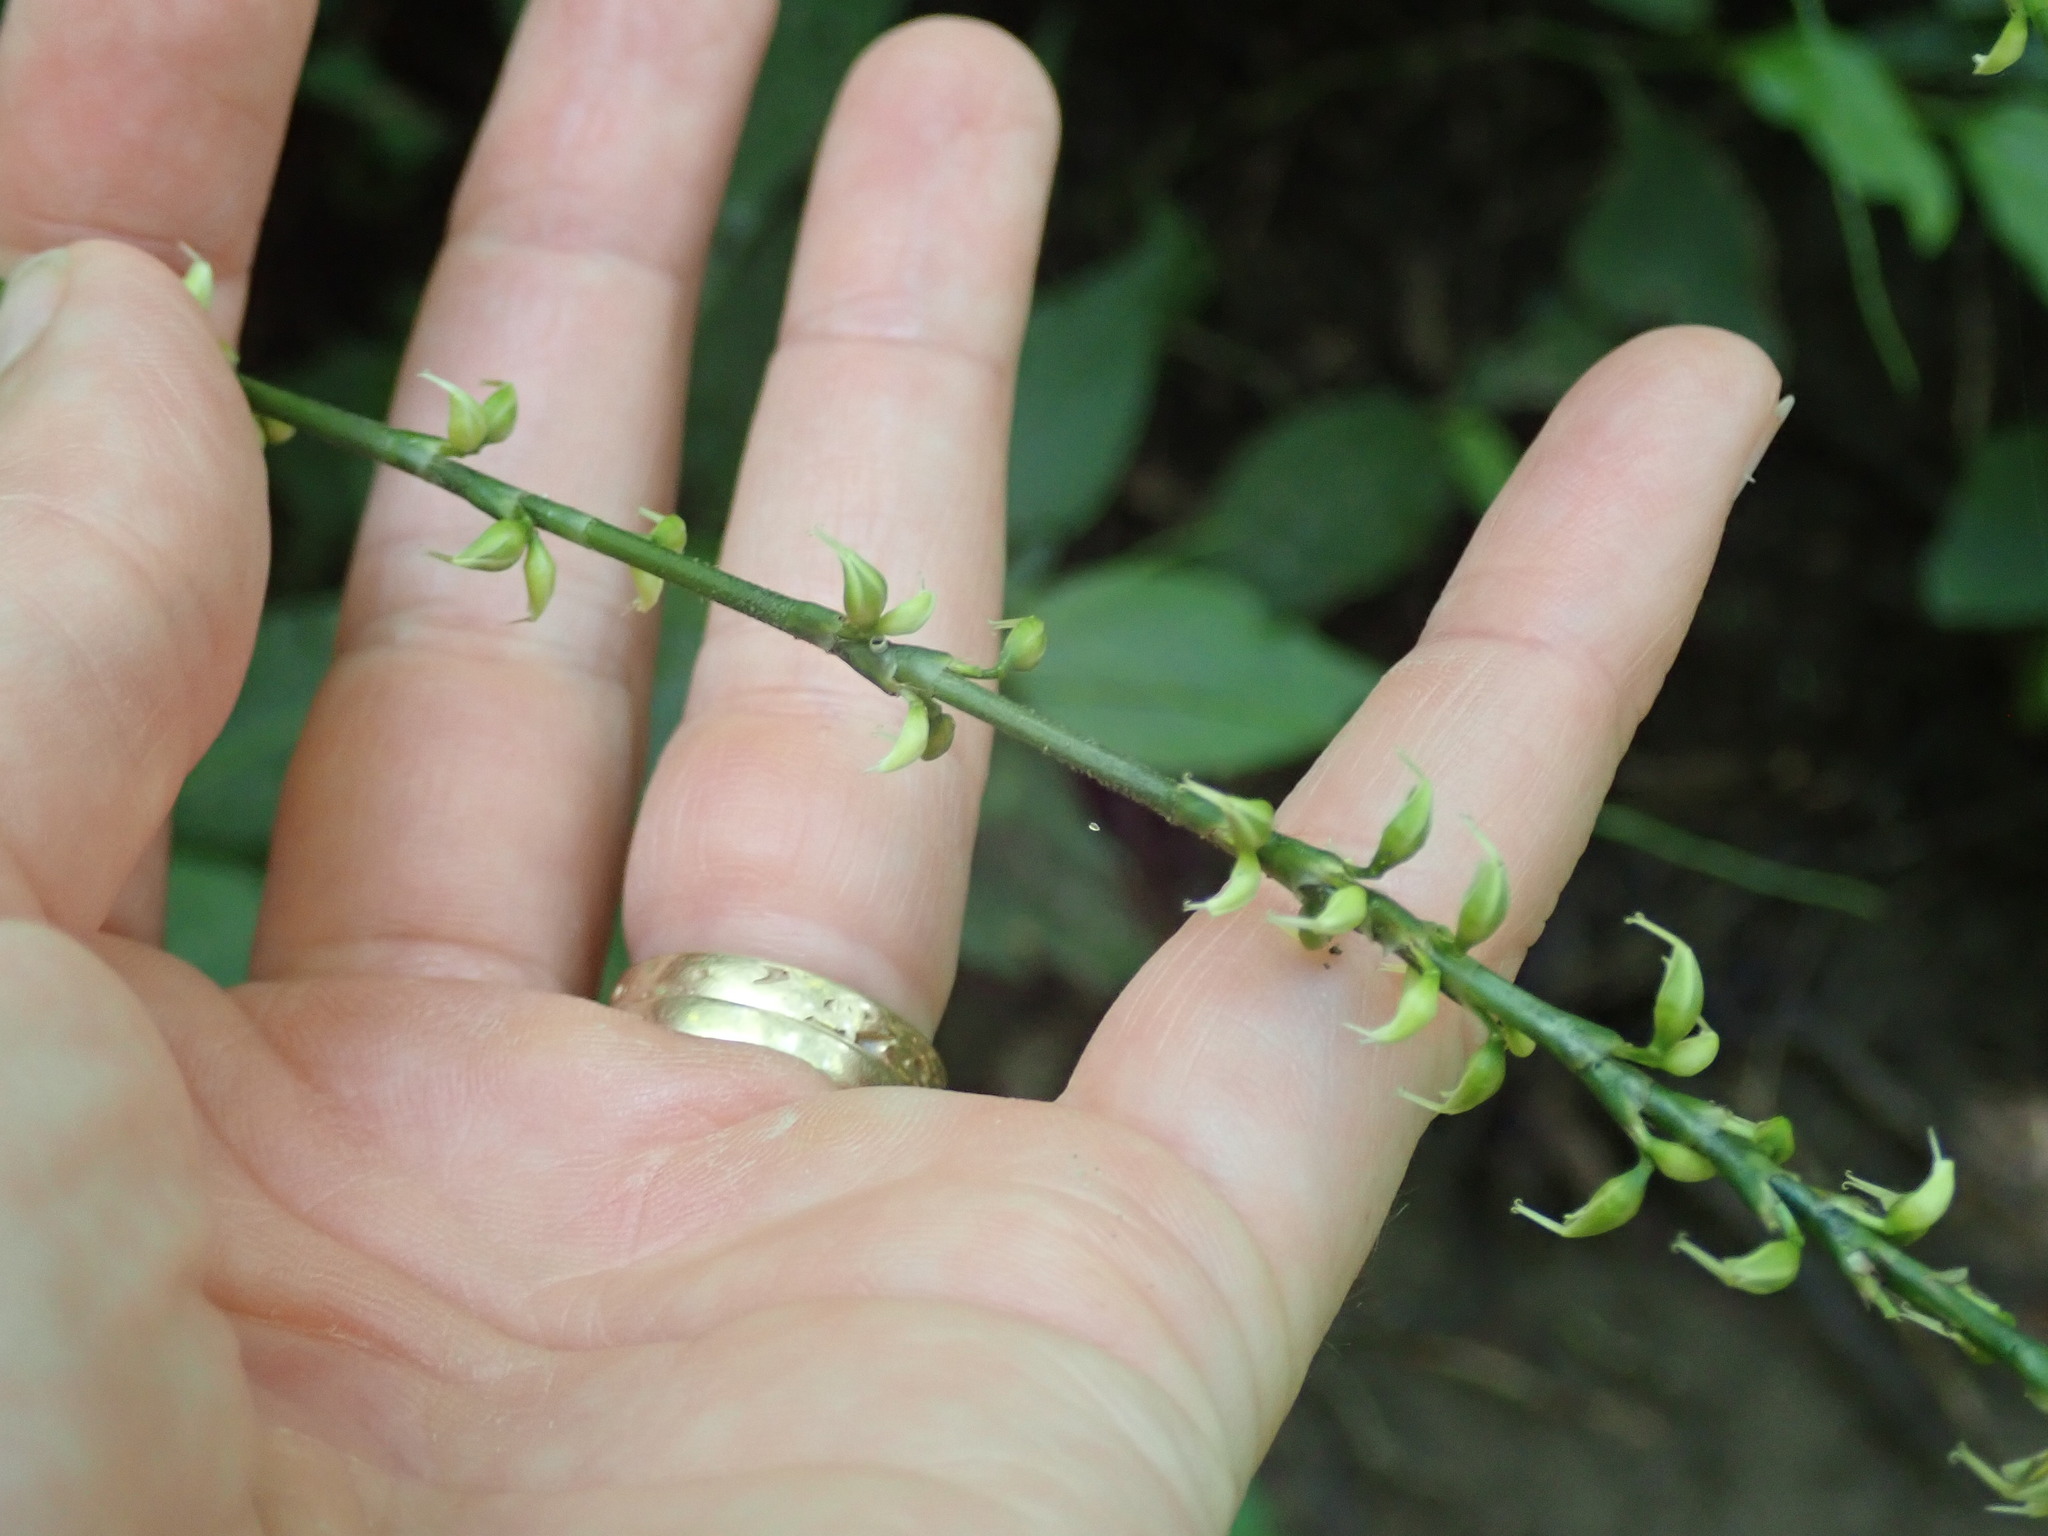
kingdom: Plantae
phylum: Tracheophyta
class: Magnoliopsida
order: Caryophyllales
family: Polygonaceae
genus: Persicaria
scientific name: Persicaria virginiana
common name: Jumpseed
